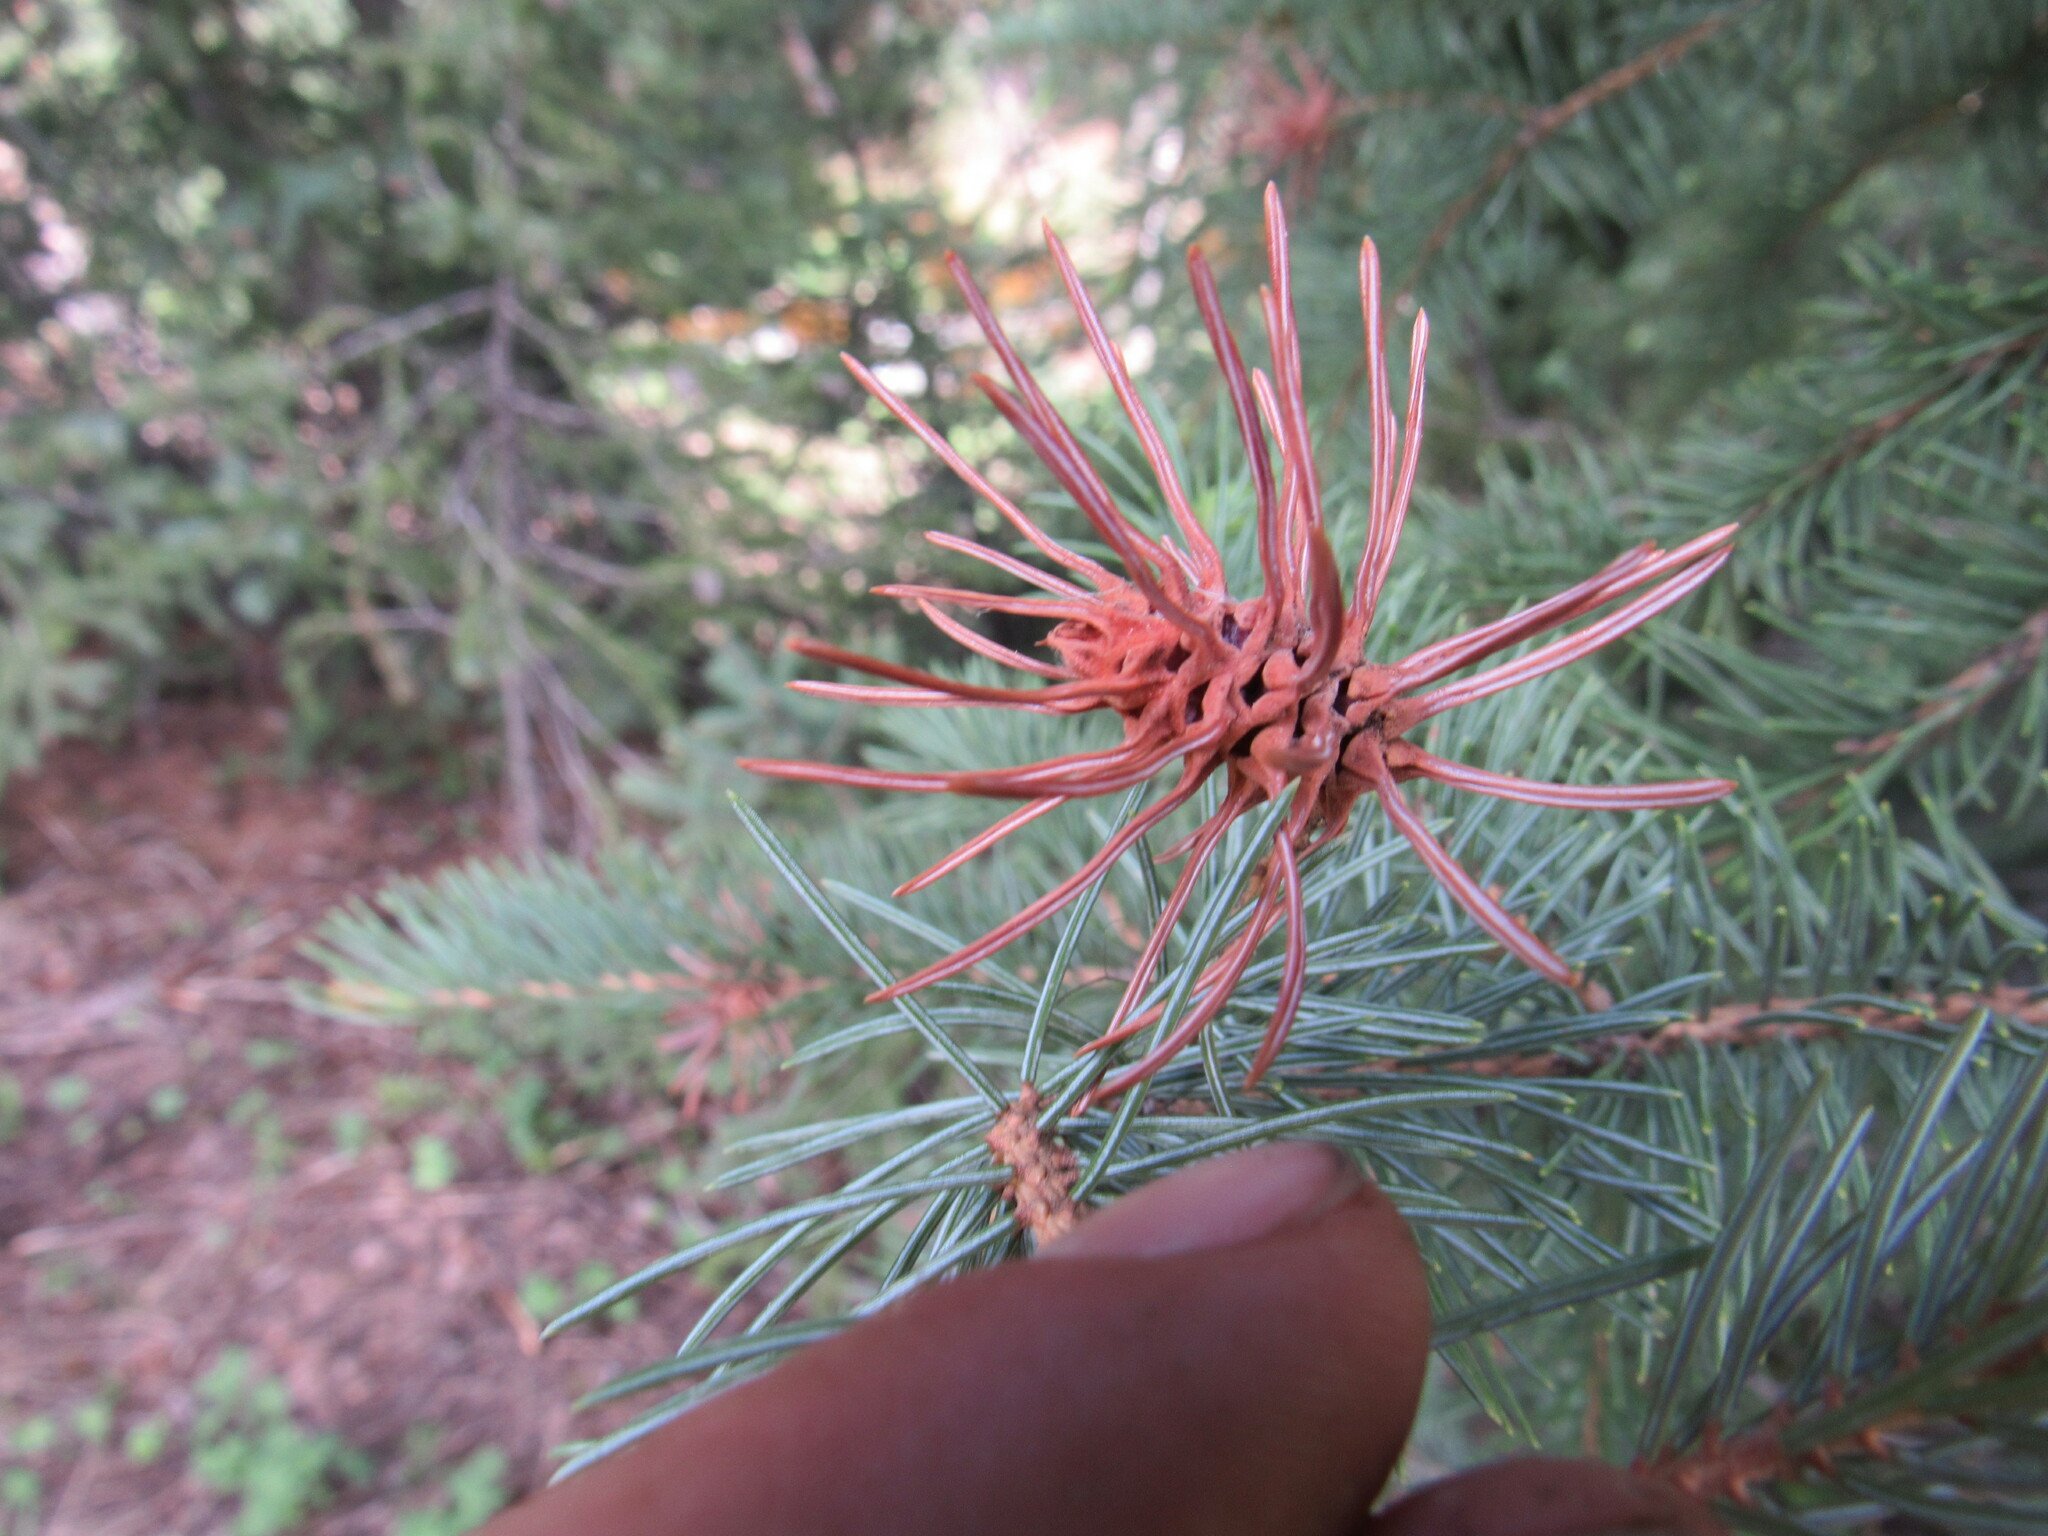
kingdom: Animalia
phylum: Arthropoda
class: Insecta
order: Hemiptera
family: Adelgidae
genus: Adelges
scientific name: Adelges cooleyi
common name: Cooley spruce gall adelgid
